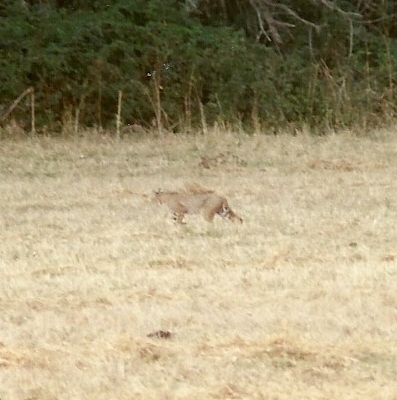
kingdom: Animalia
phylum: Chordata
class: Mammalia
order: Carnivora
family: Felidae
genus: Lynx
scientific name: Lynx rufus
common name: Bobcat
